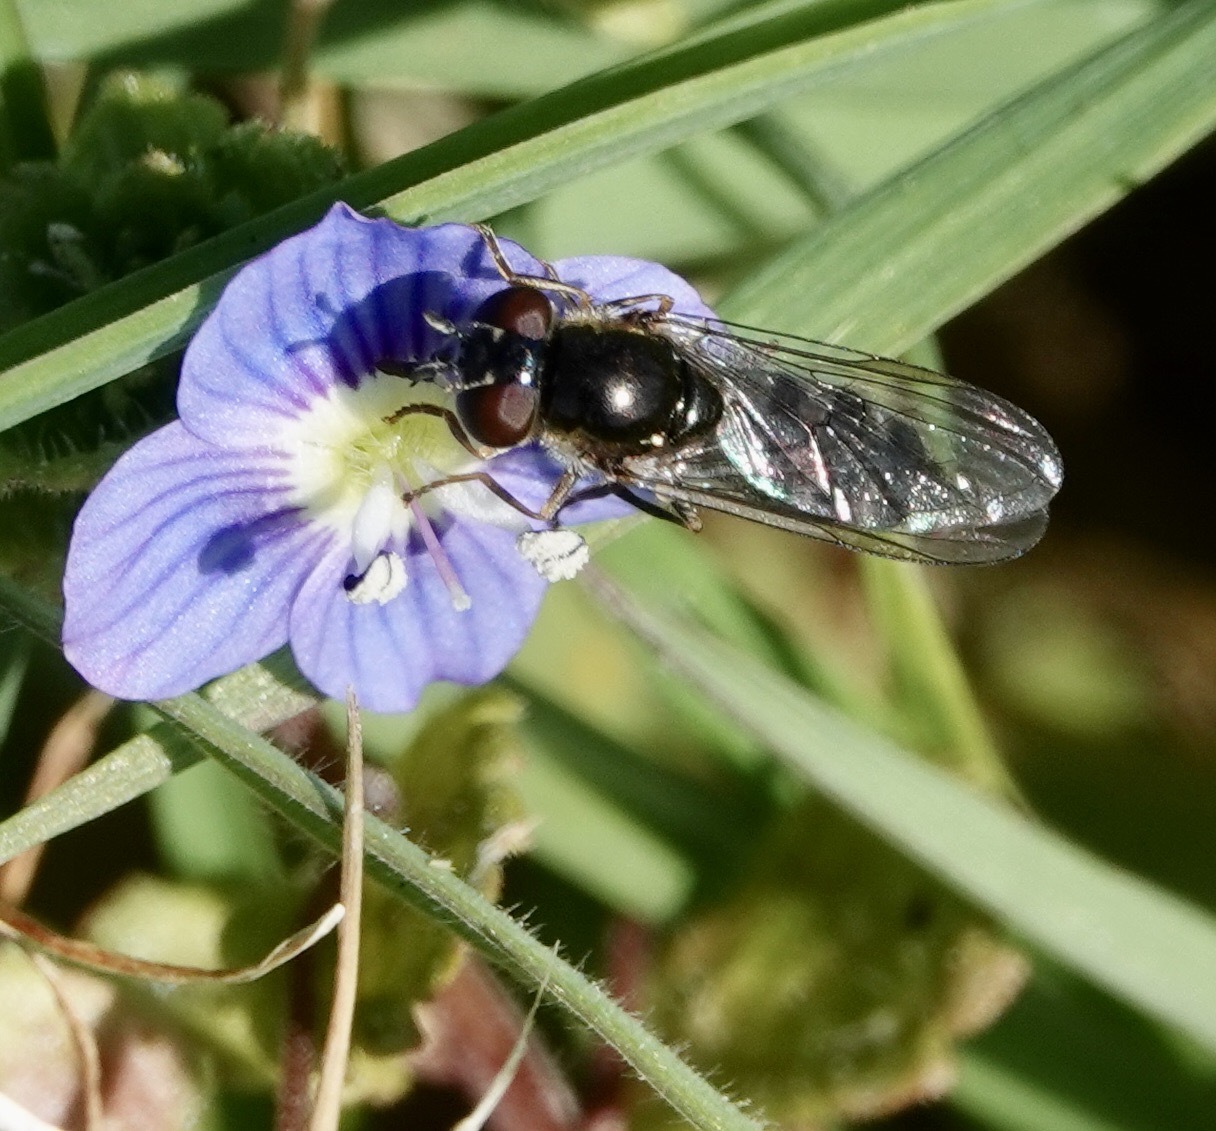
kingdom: Animalia
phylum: Arthropoda
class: Insecta
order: Diptera
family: Syrphidae
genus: Platycheirus
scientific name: Platycheirus albimanus
